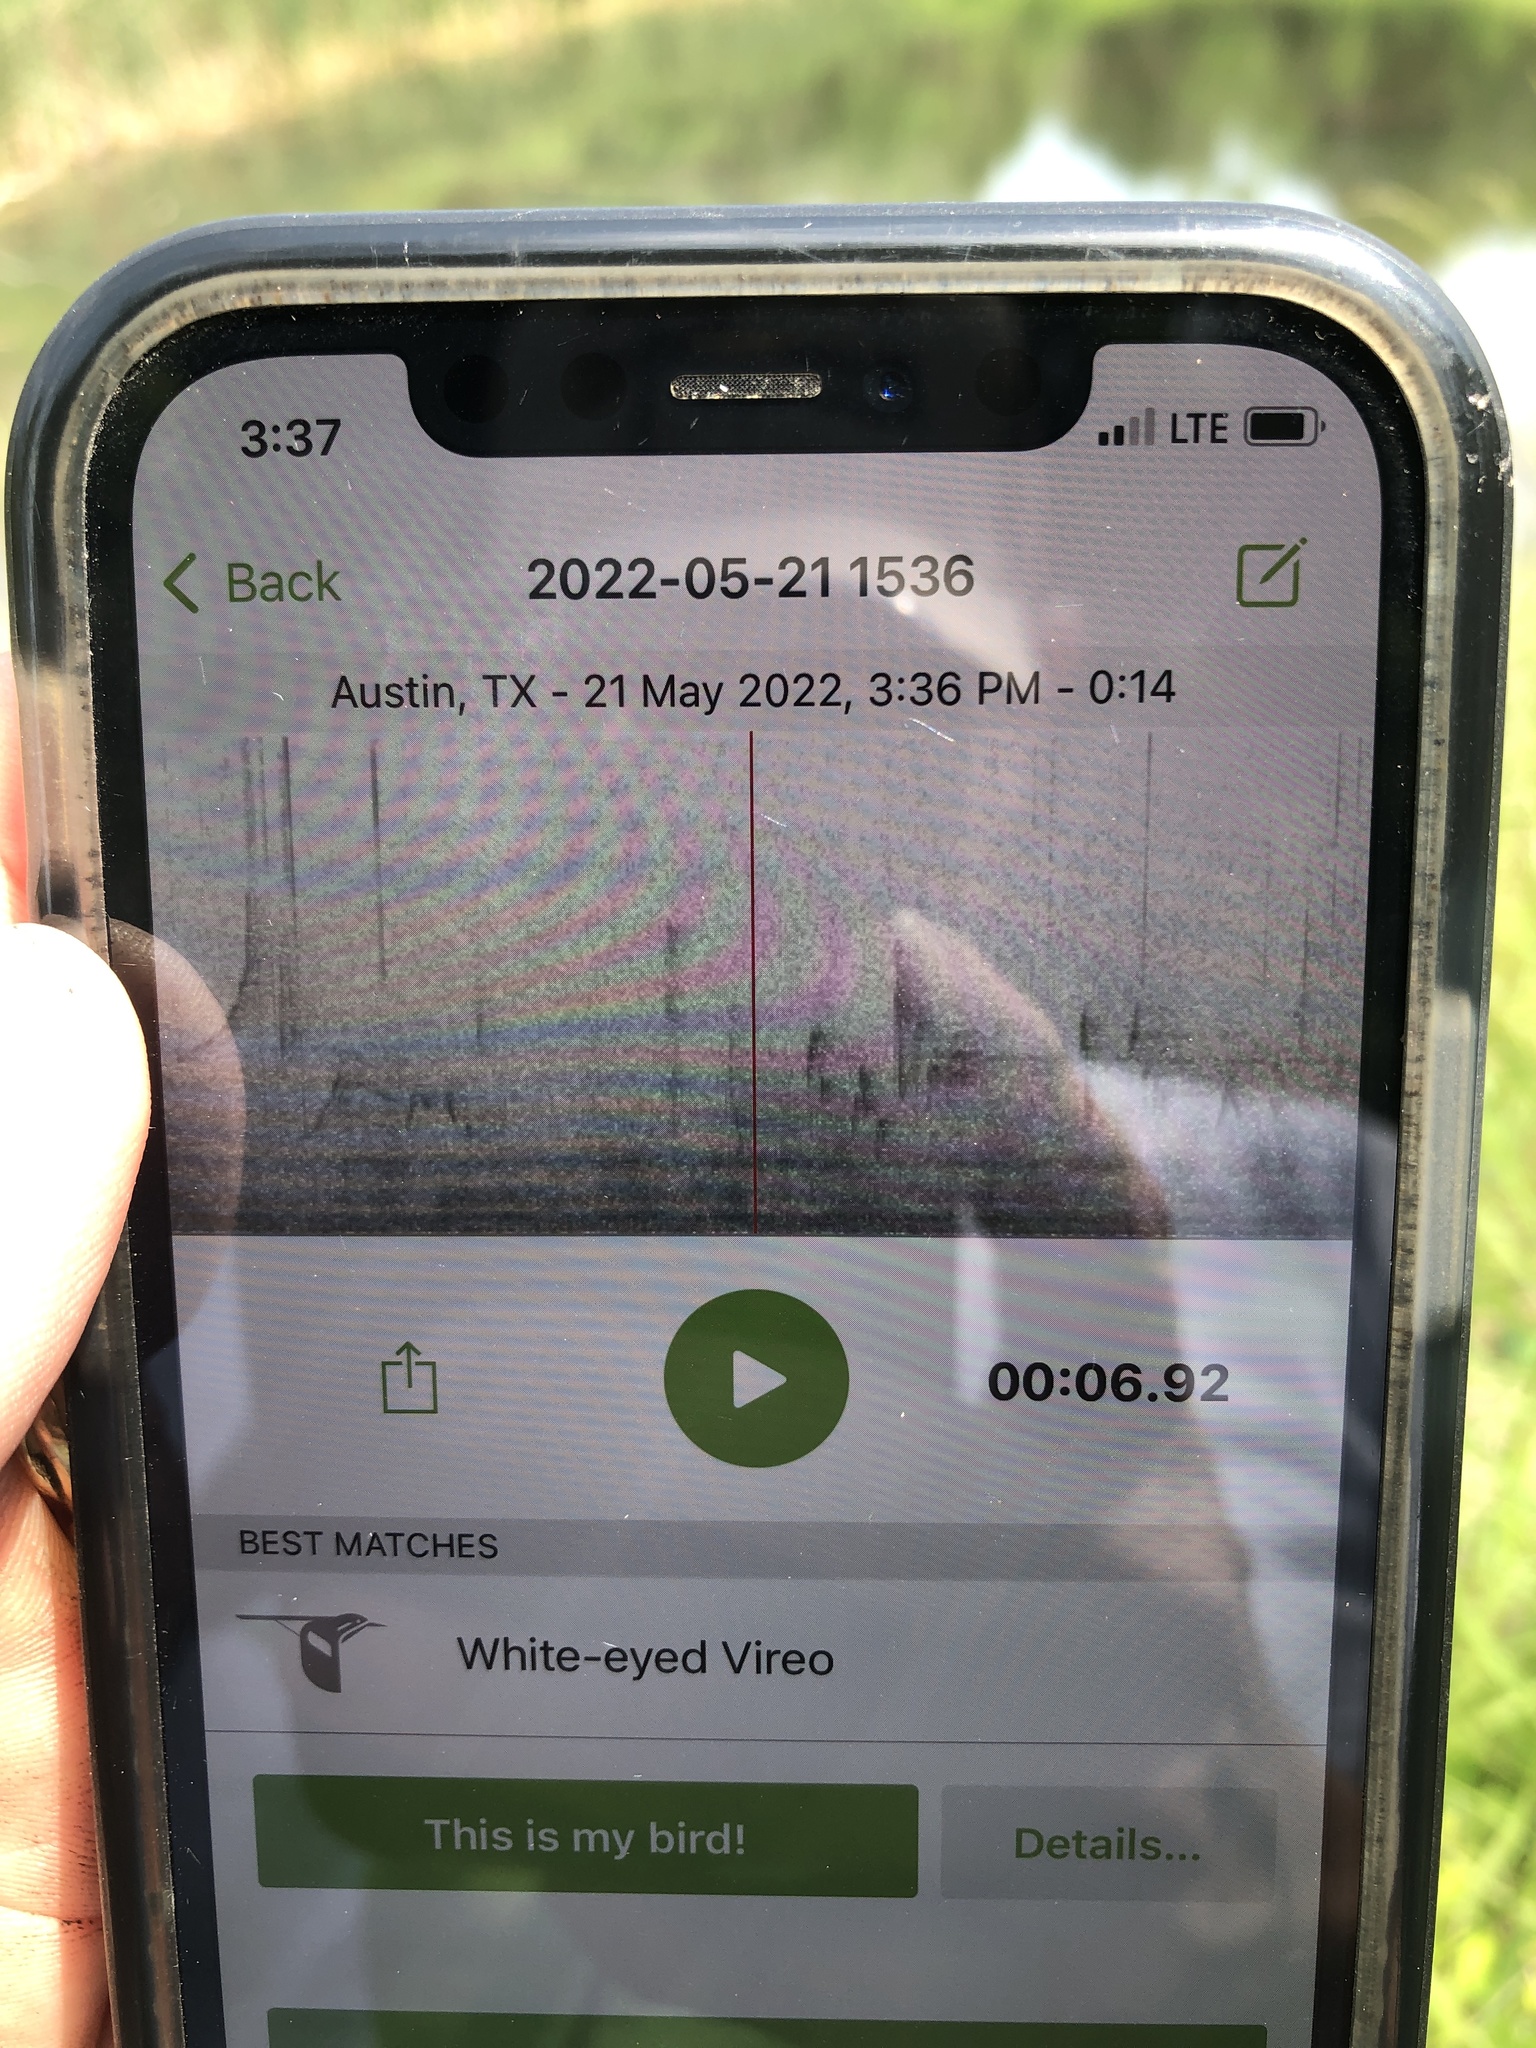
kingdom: Animalia
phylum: Chordata
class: Aves
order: Passeriformes
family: Vireonidae
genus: Vireo
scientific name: Vireo griseus
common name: White-eyed vireo
